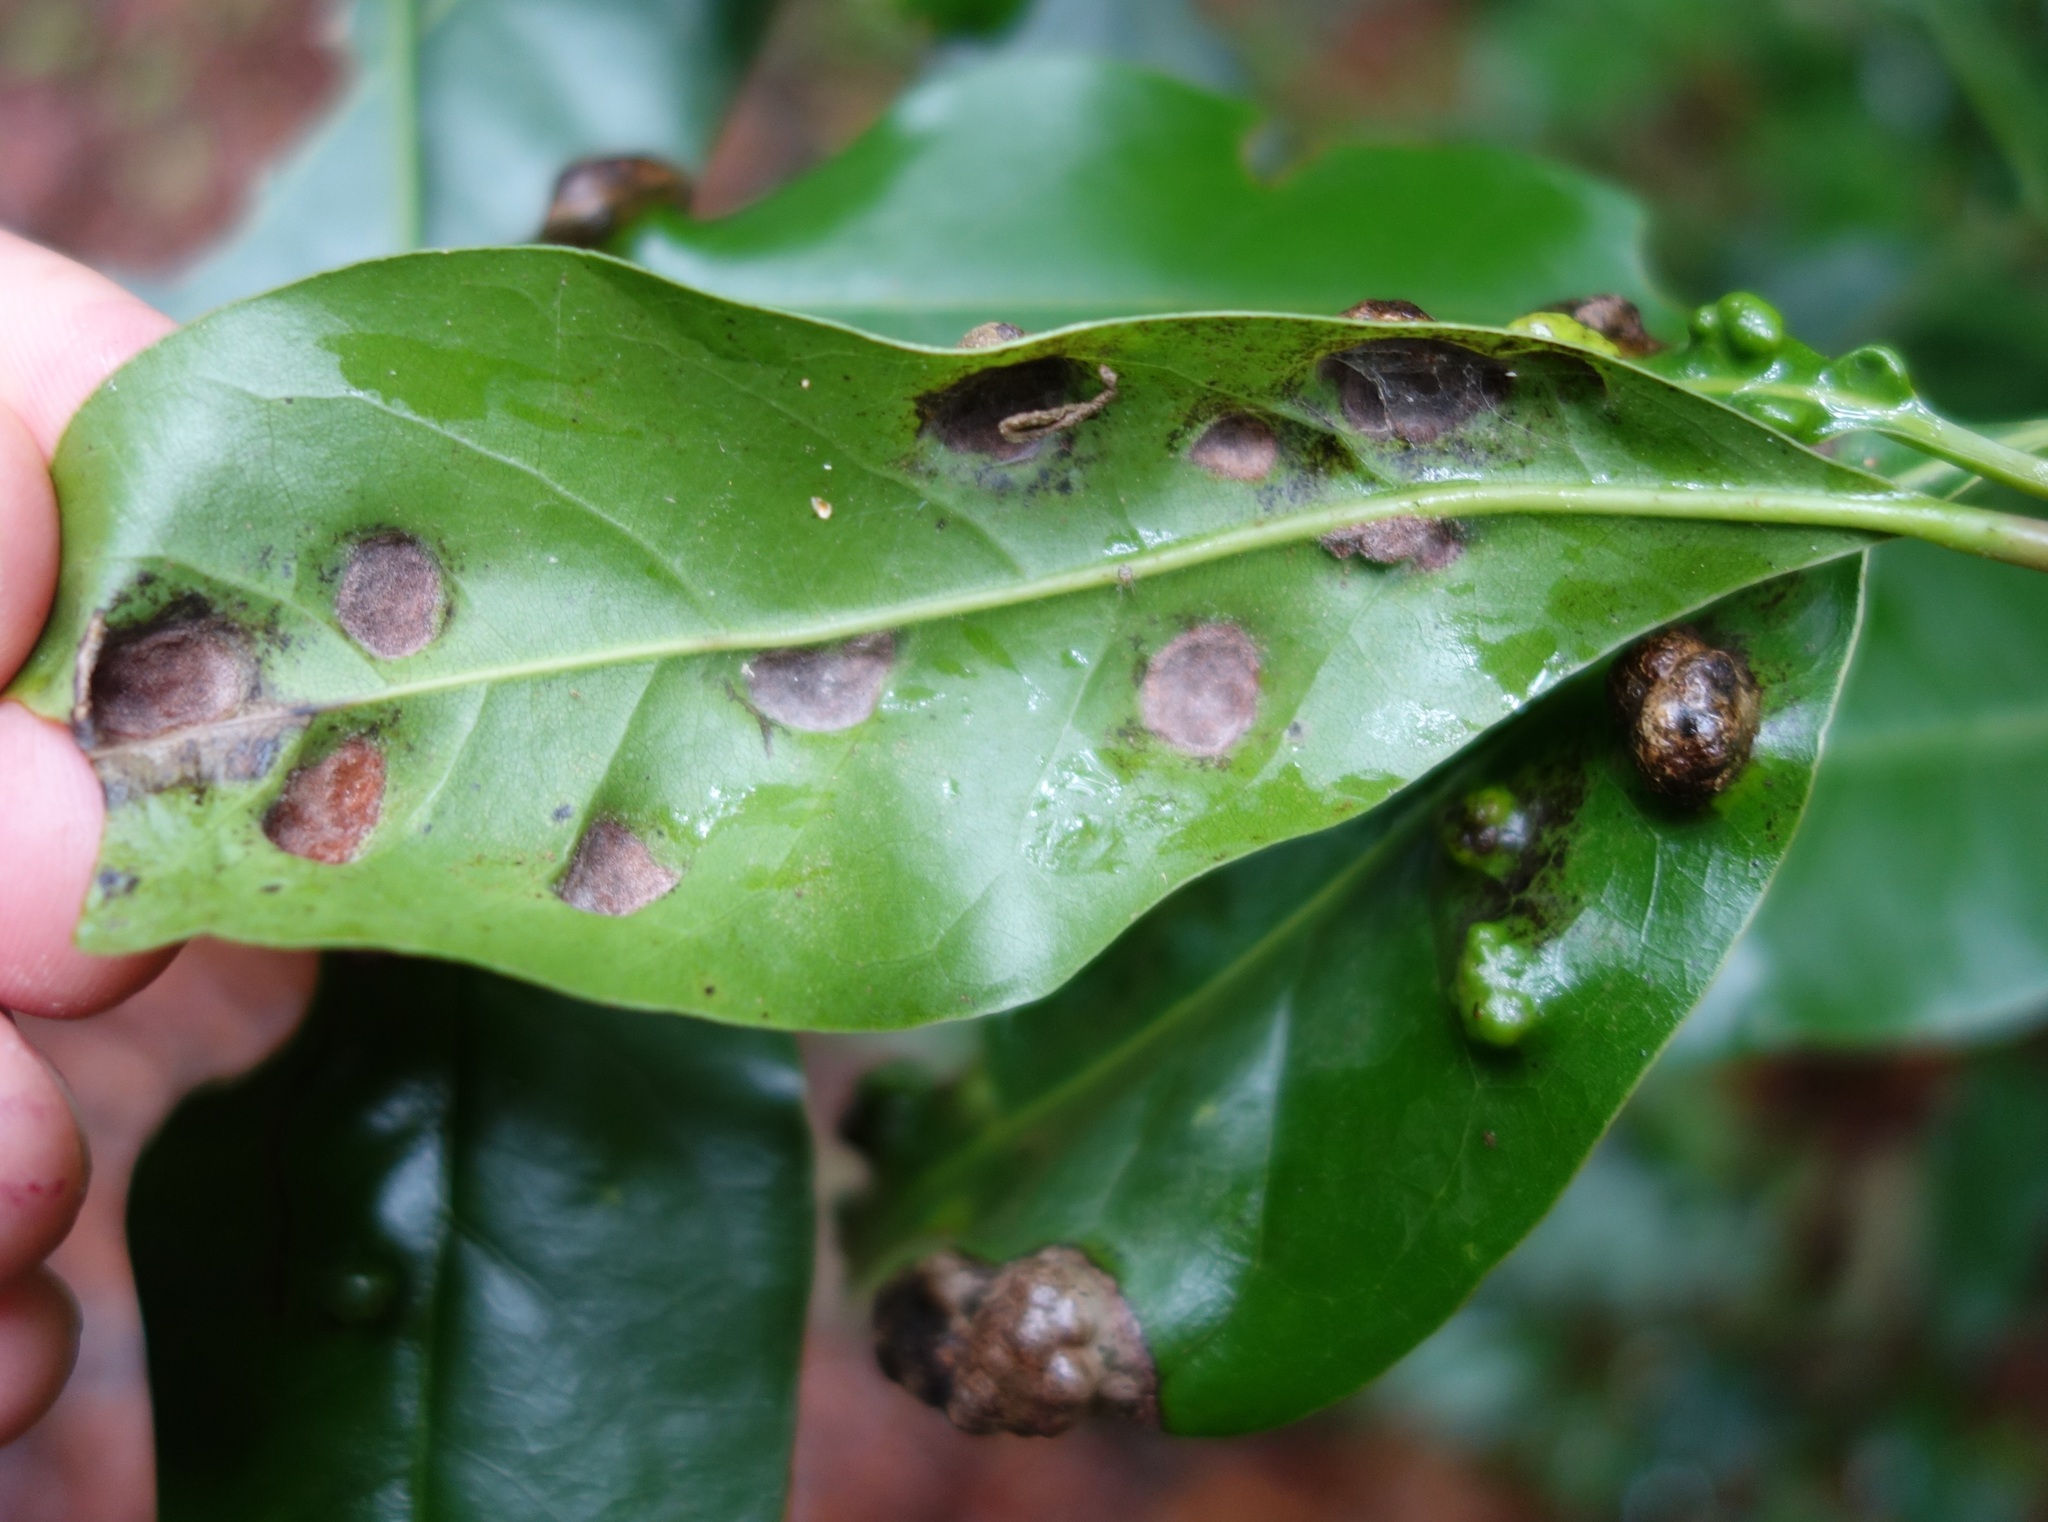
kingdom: Animalia
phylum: Arthropoda
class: Arachnida
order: Trombidiformes
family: Eriophyidae
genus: Aceria
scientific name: Aceria barbujanae
